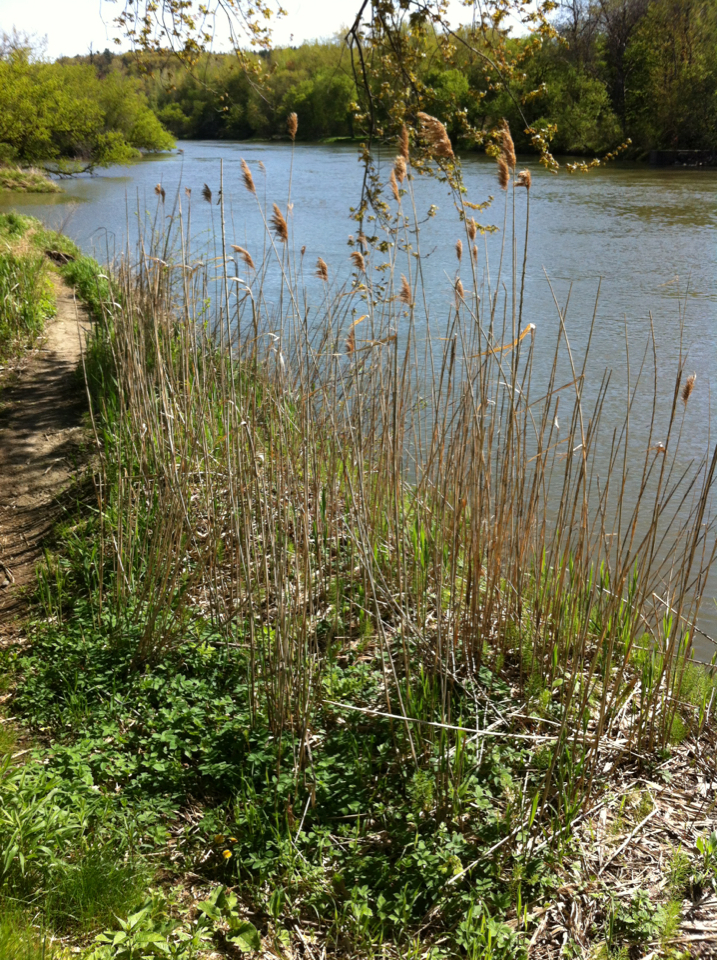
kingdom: Plantae
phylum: Tracheophyta
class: Liliopsida
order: Poales
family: Poaceae
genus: Phragmites
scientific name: Phragmites australis
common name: Common reed
